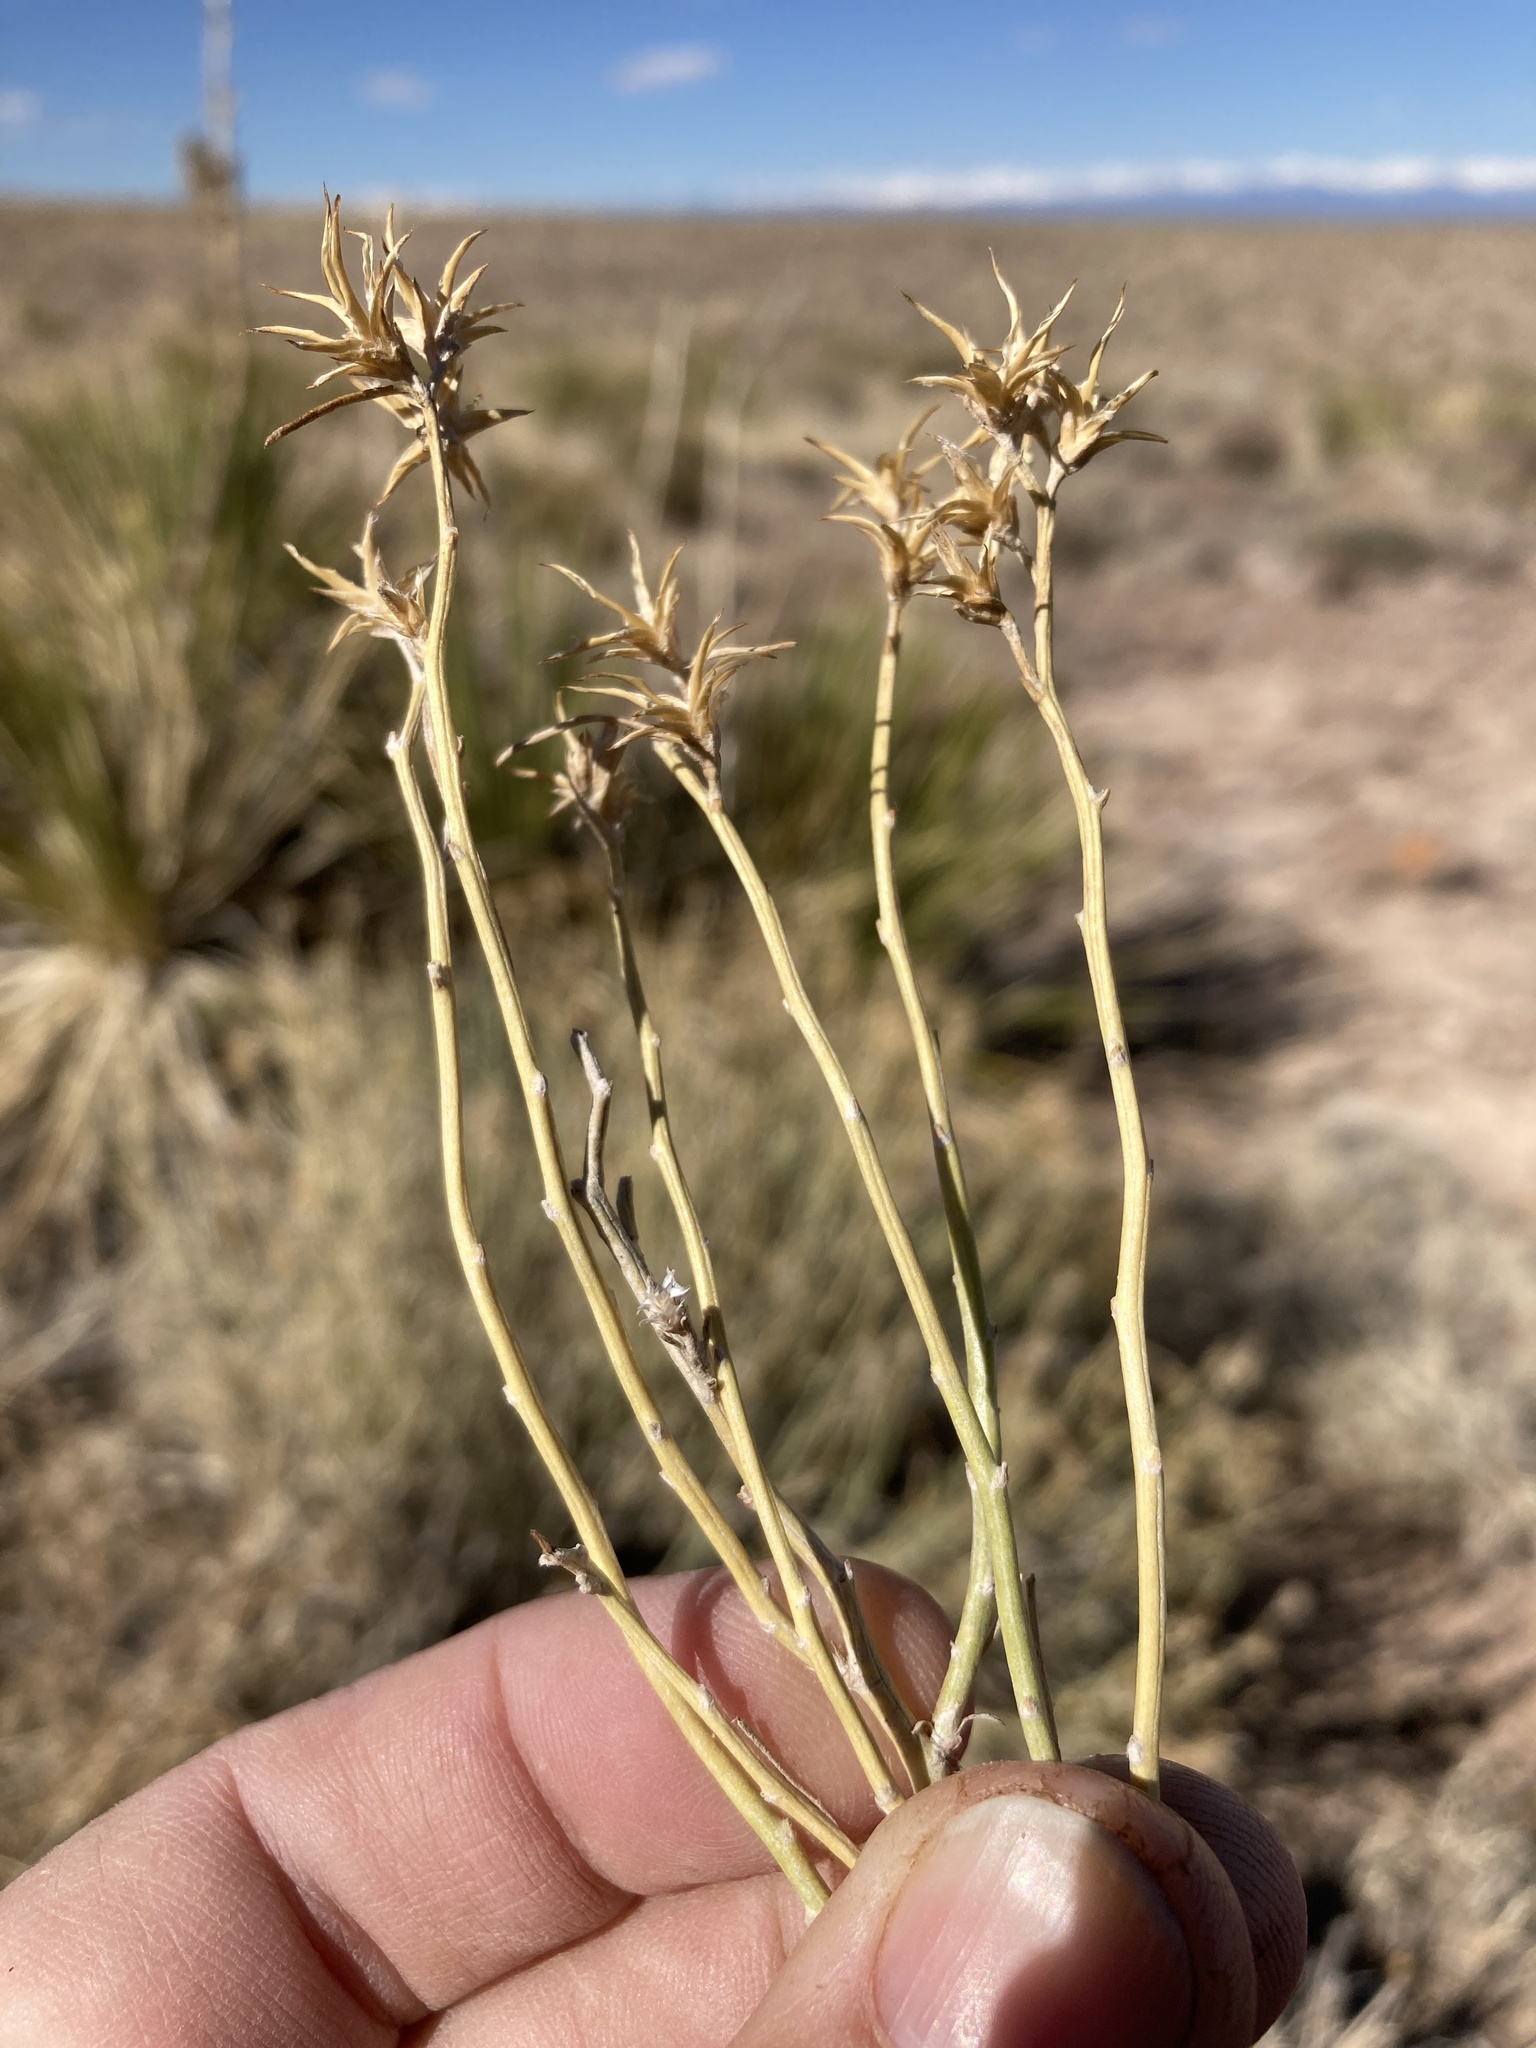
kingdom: Plantae
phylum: Tracheophyta
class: Magnoliopsida
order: Asterales
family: Asteraceae
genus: Ericameria
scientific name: Ericameria nauseosa
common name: Rubber rabbitbrush
